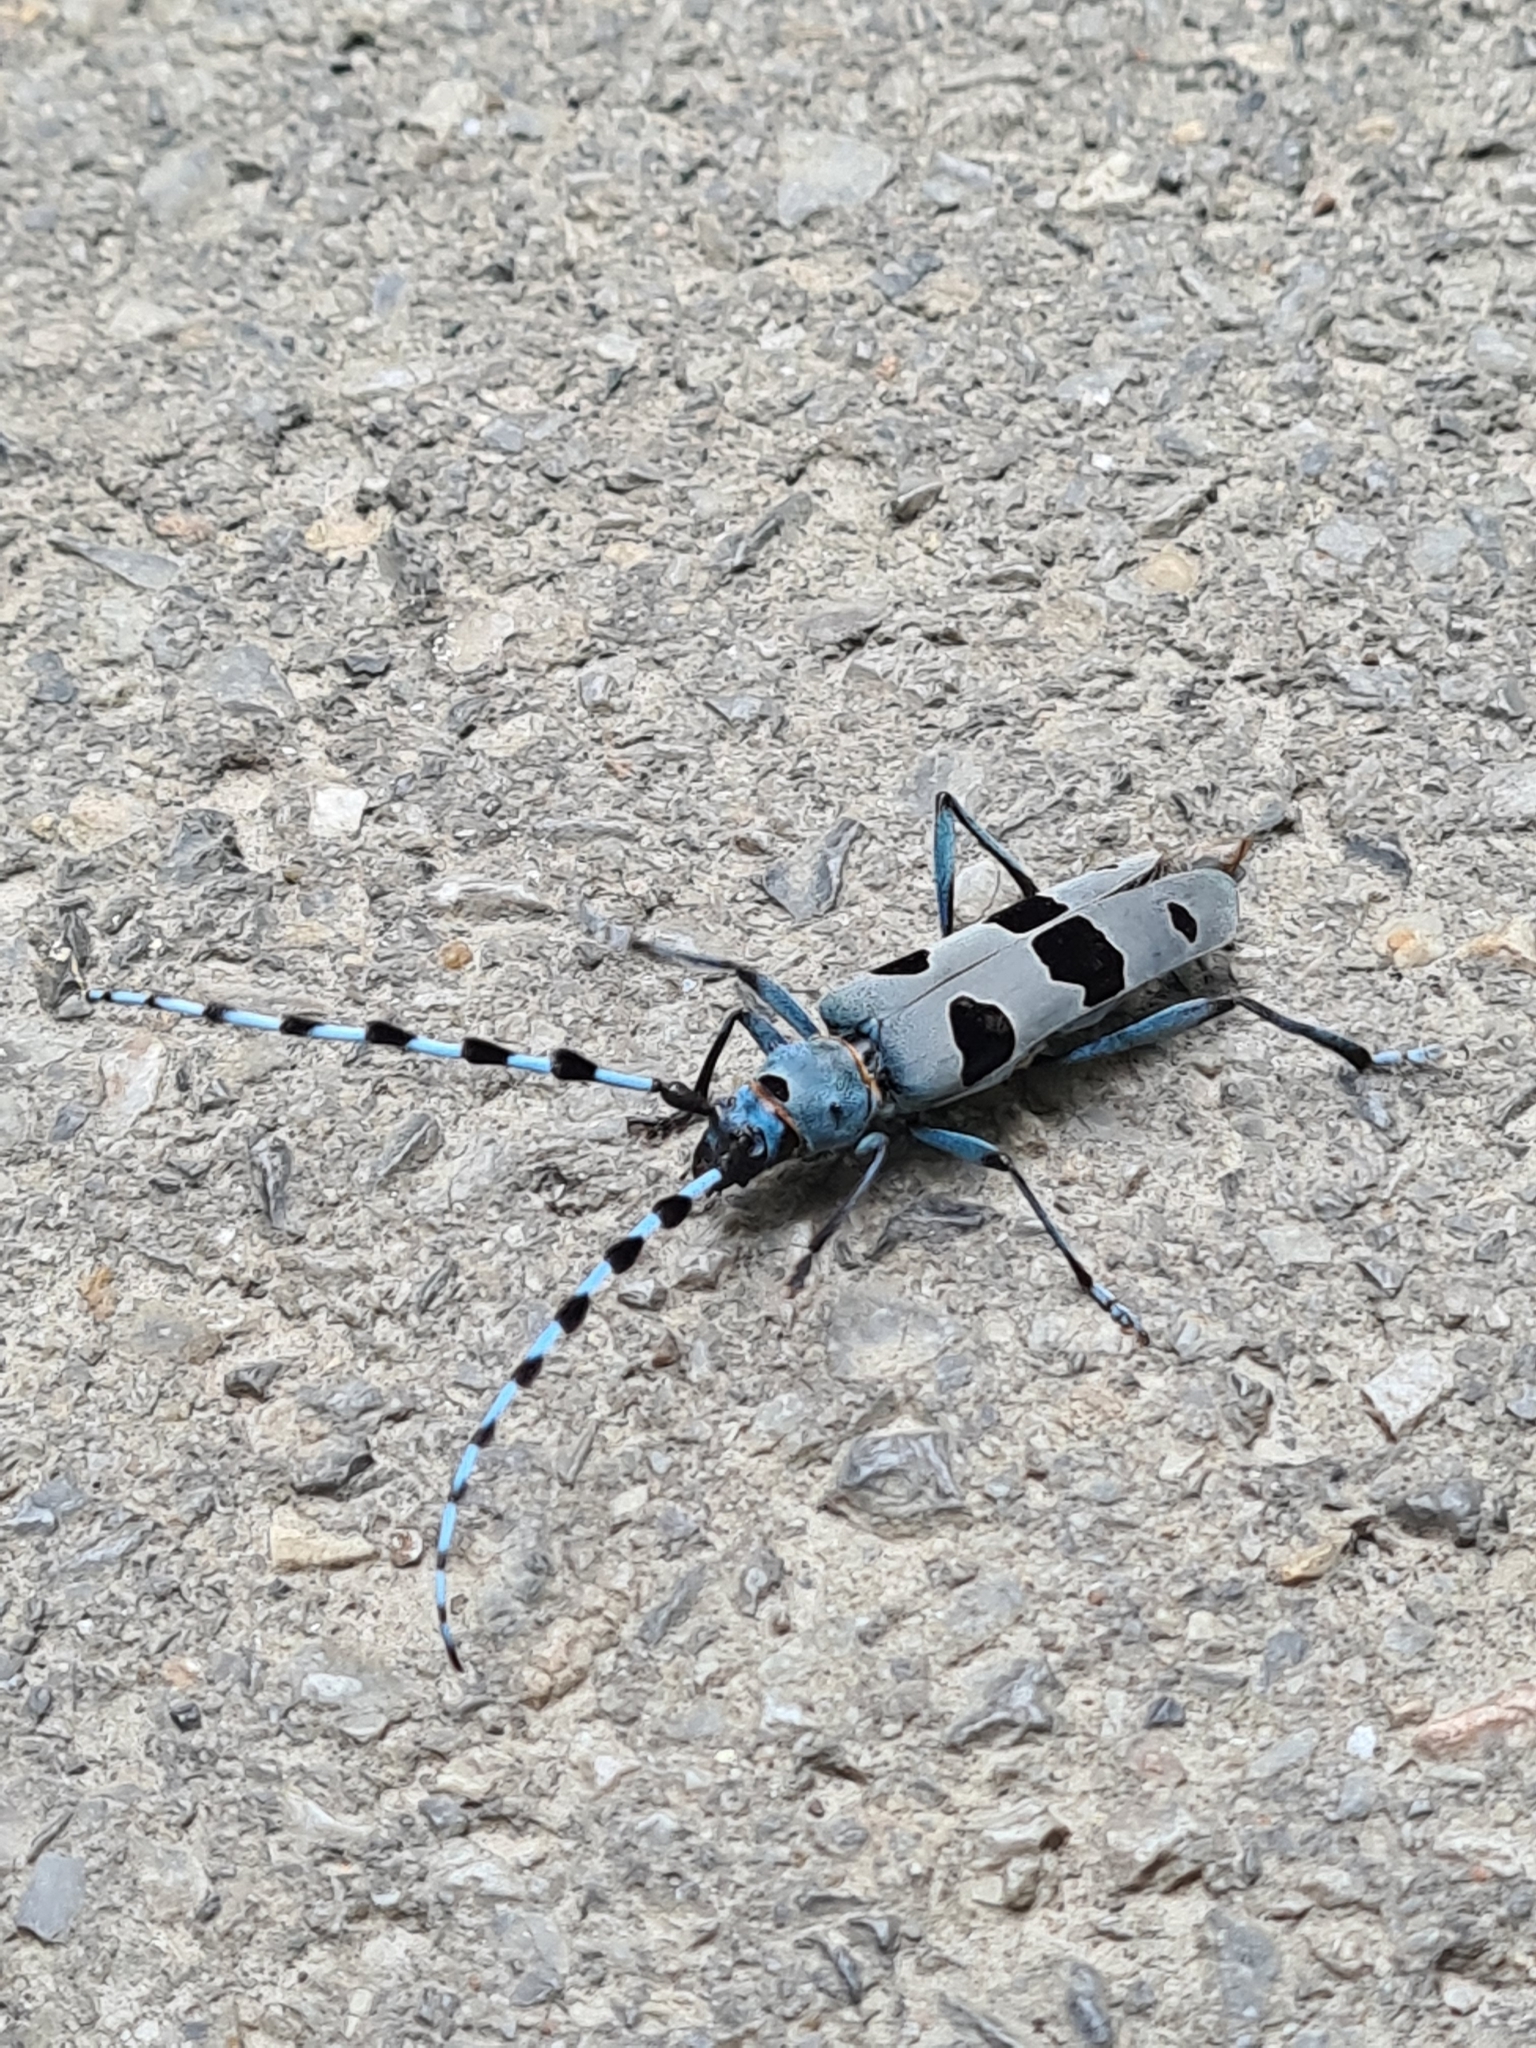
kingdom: Animalia
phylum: Arthropoda
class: Insecta
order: Coleoptera
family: Cerambycidae
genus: Rosalia
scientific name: Rosalia alpina
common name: Rosalia longicorn
